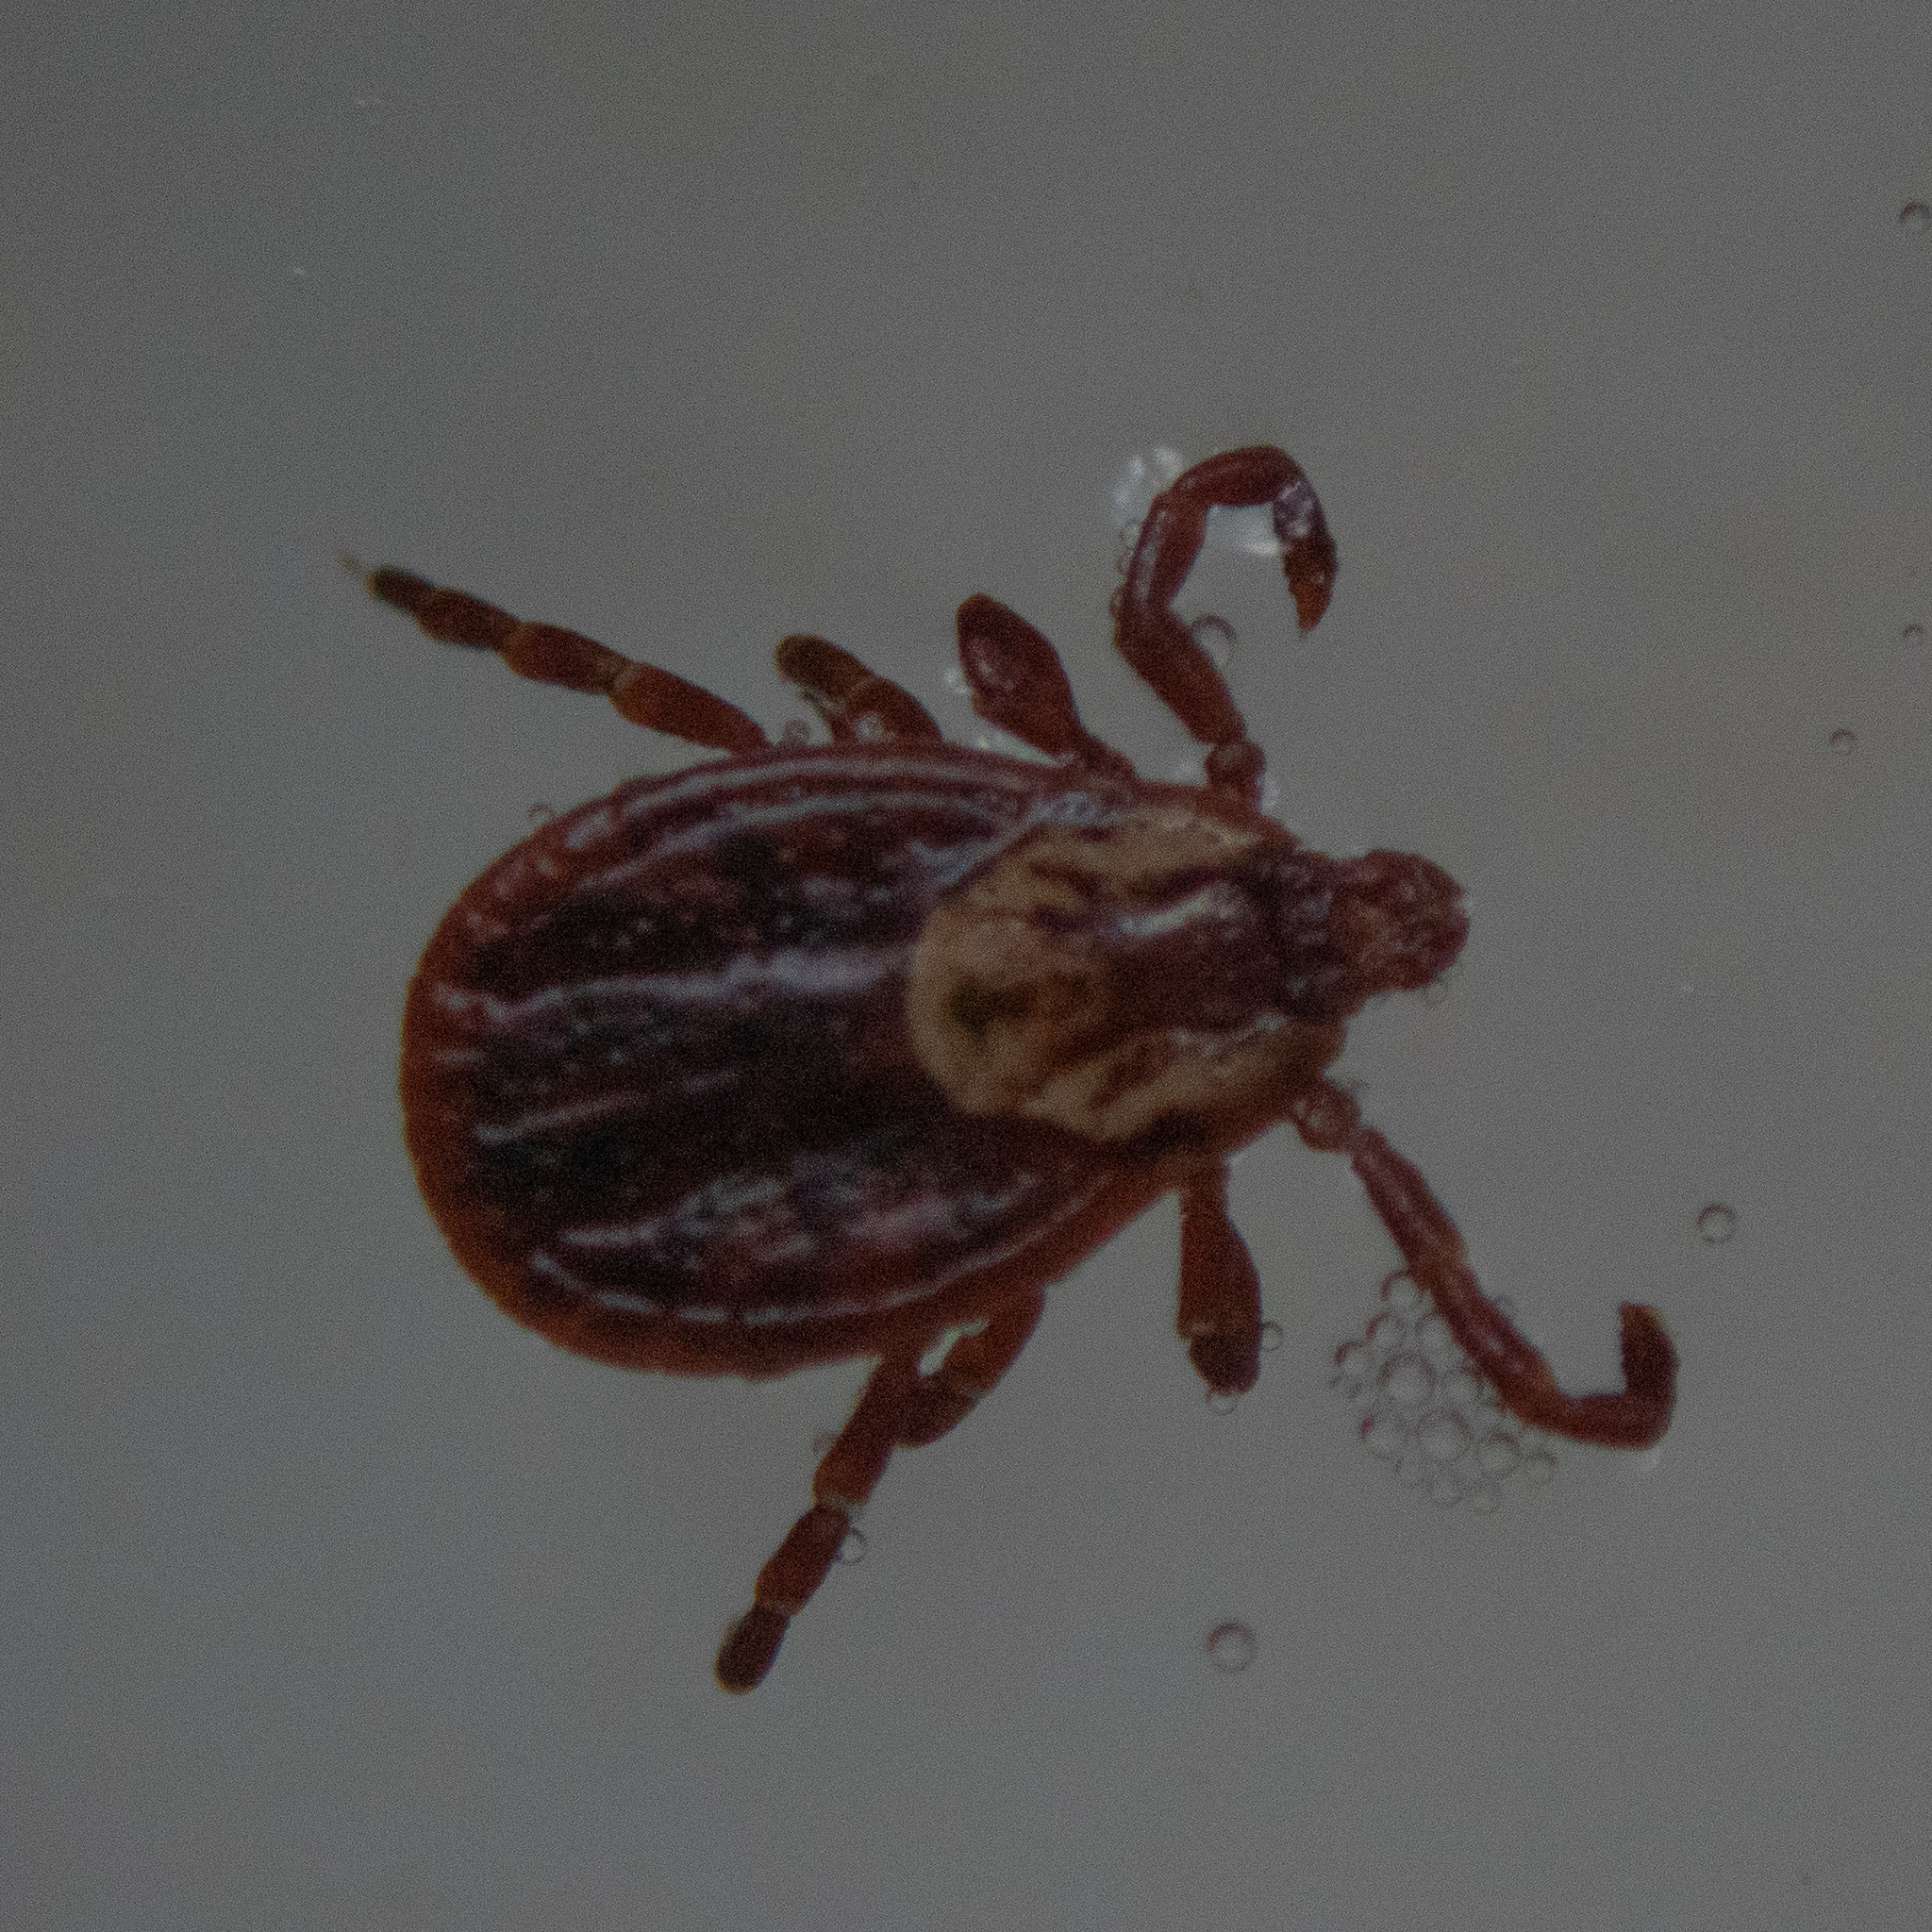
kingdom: Animalia
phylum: Arthropoda
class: Arachnida
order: Ixodida
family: Ixodidae
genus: Dermacentor
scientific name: Dermacentor variabilis
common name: American dog tick
